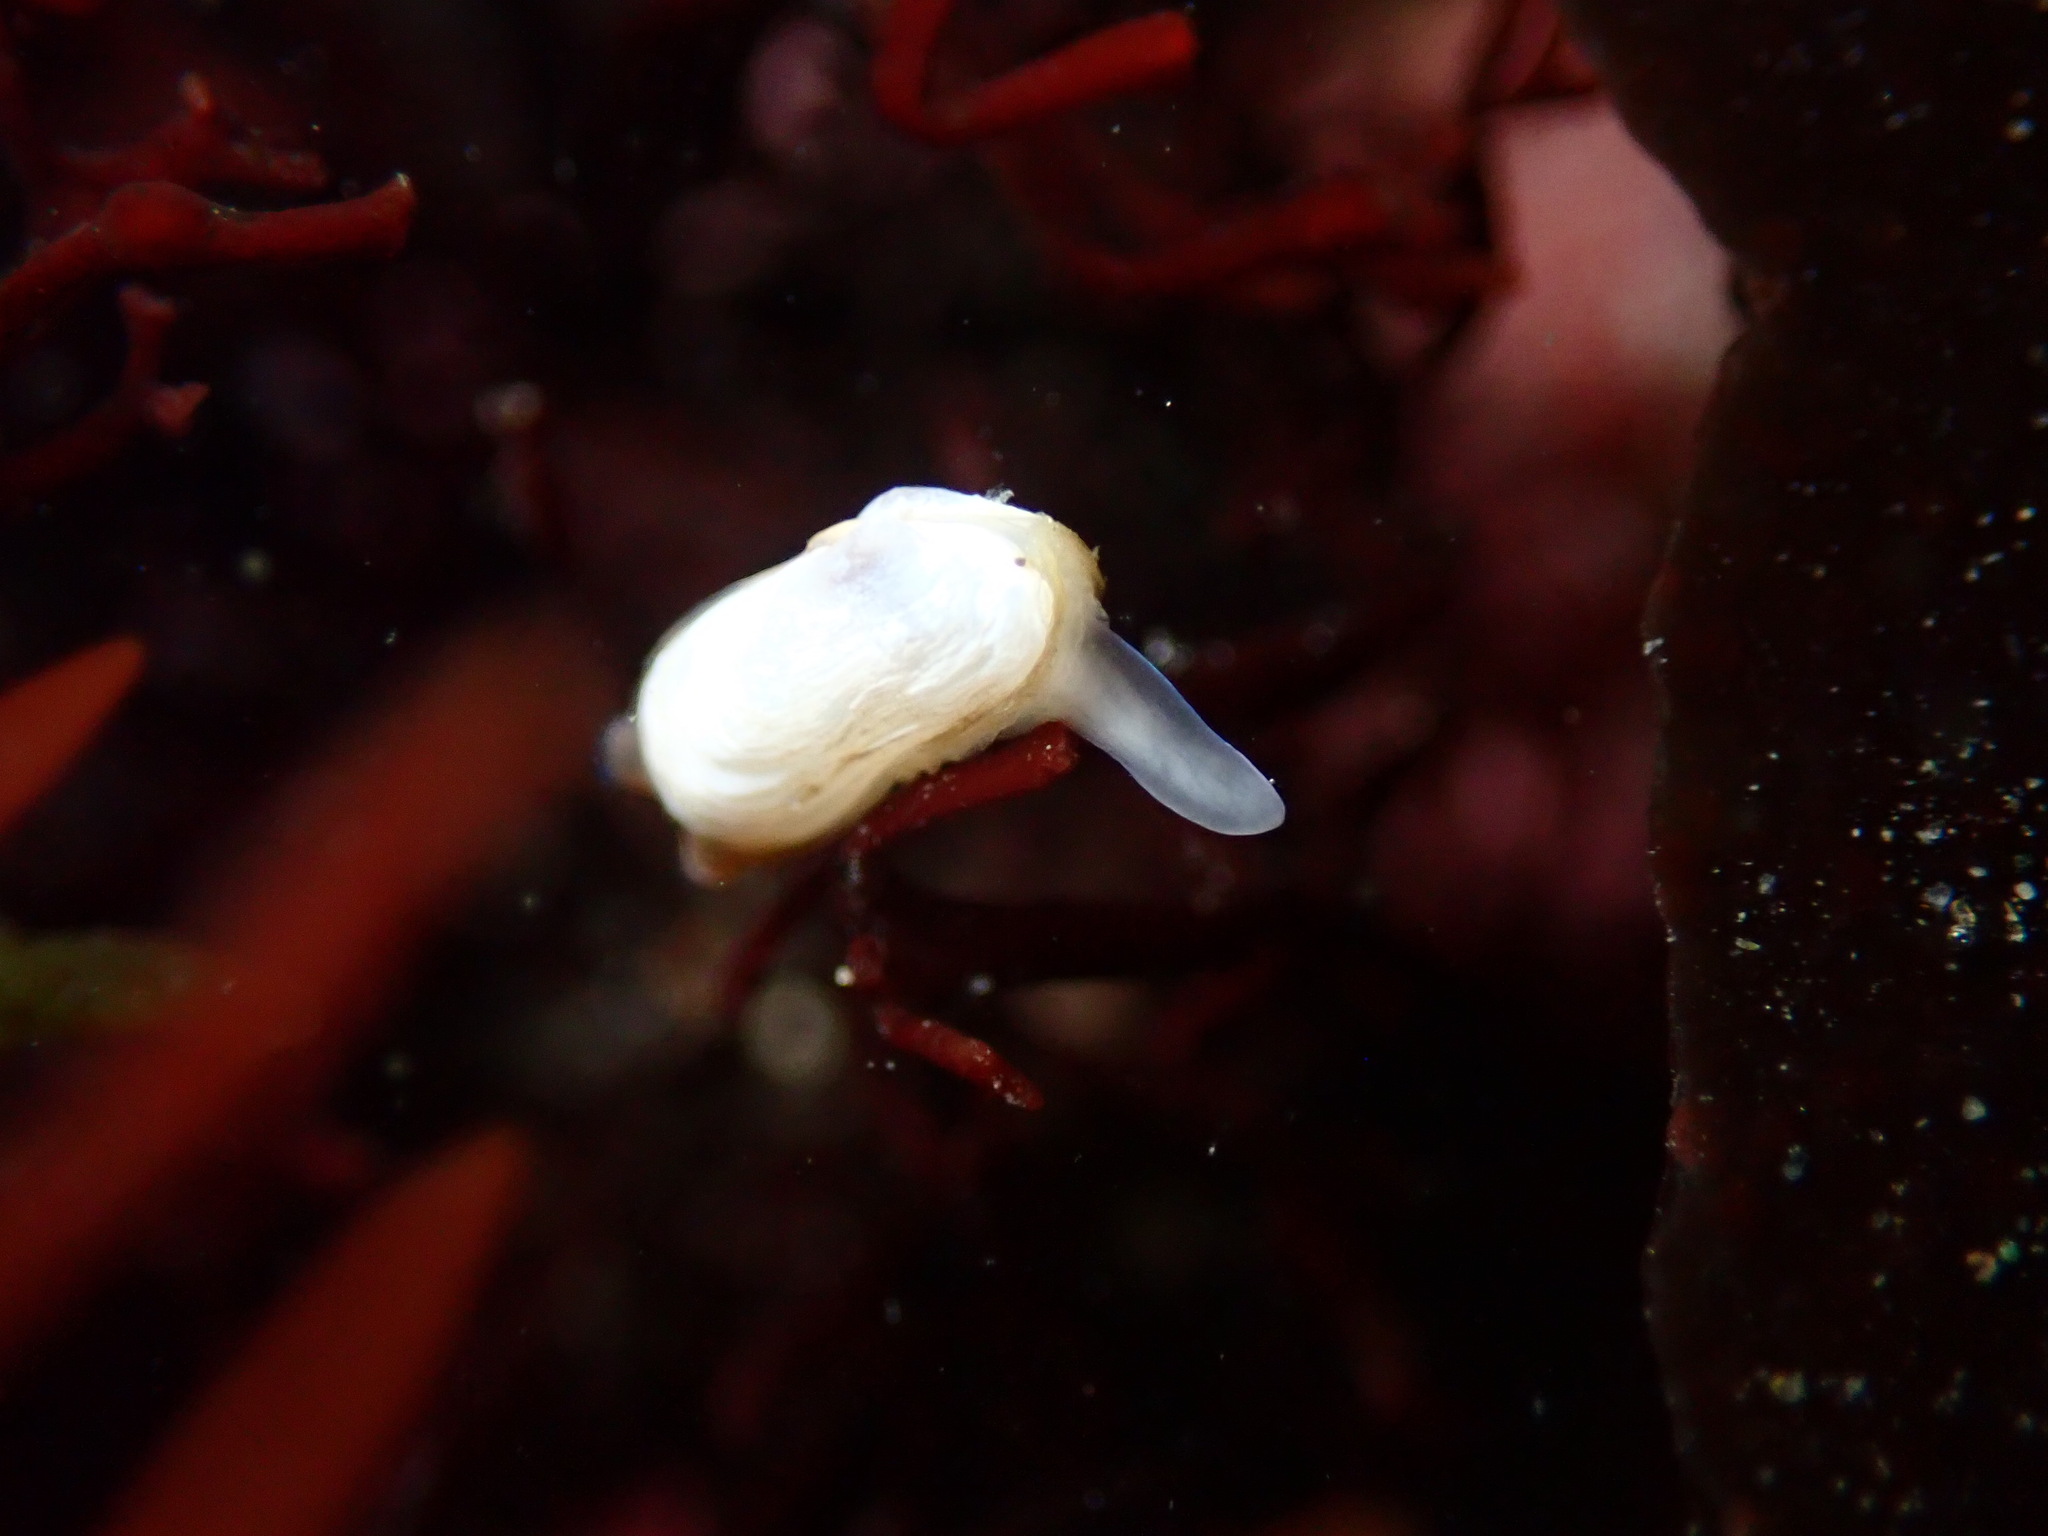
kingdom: Animalia
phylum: Mollusca
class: Bivalvia
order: Adapedonta
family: Hiatellidae
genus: Hiatella
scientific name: Hiatella arctica
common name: Arctic hiatella
